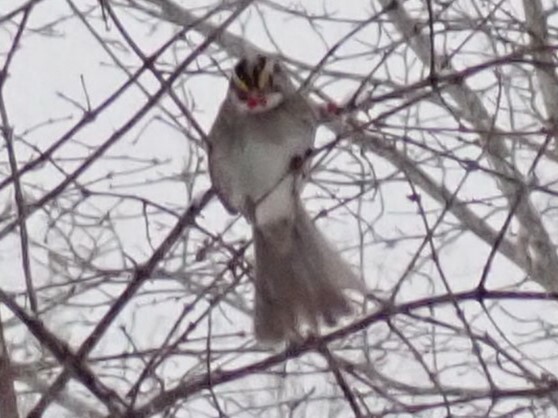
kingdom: Animalia
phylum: Chordata
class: Aves
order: Passeriformes
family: Passerellidae
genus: Zonotrichia
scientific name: Zonotrichia albicollis
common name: White-throated sparrow
